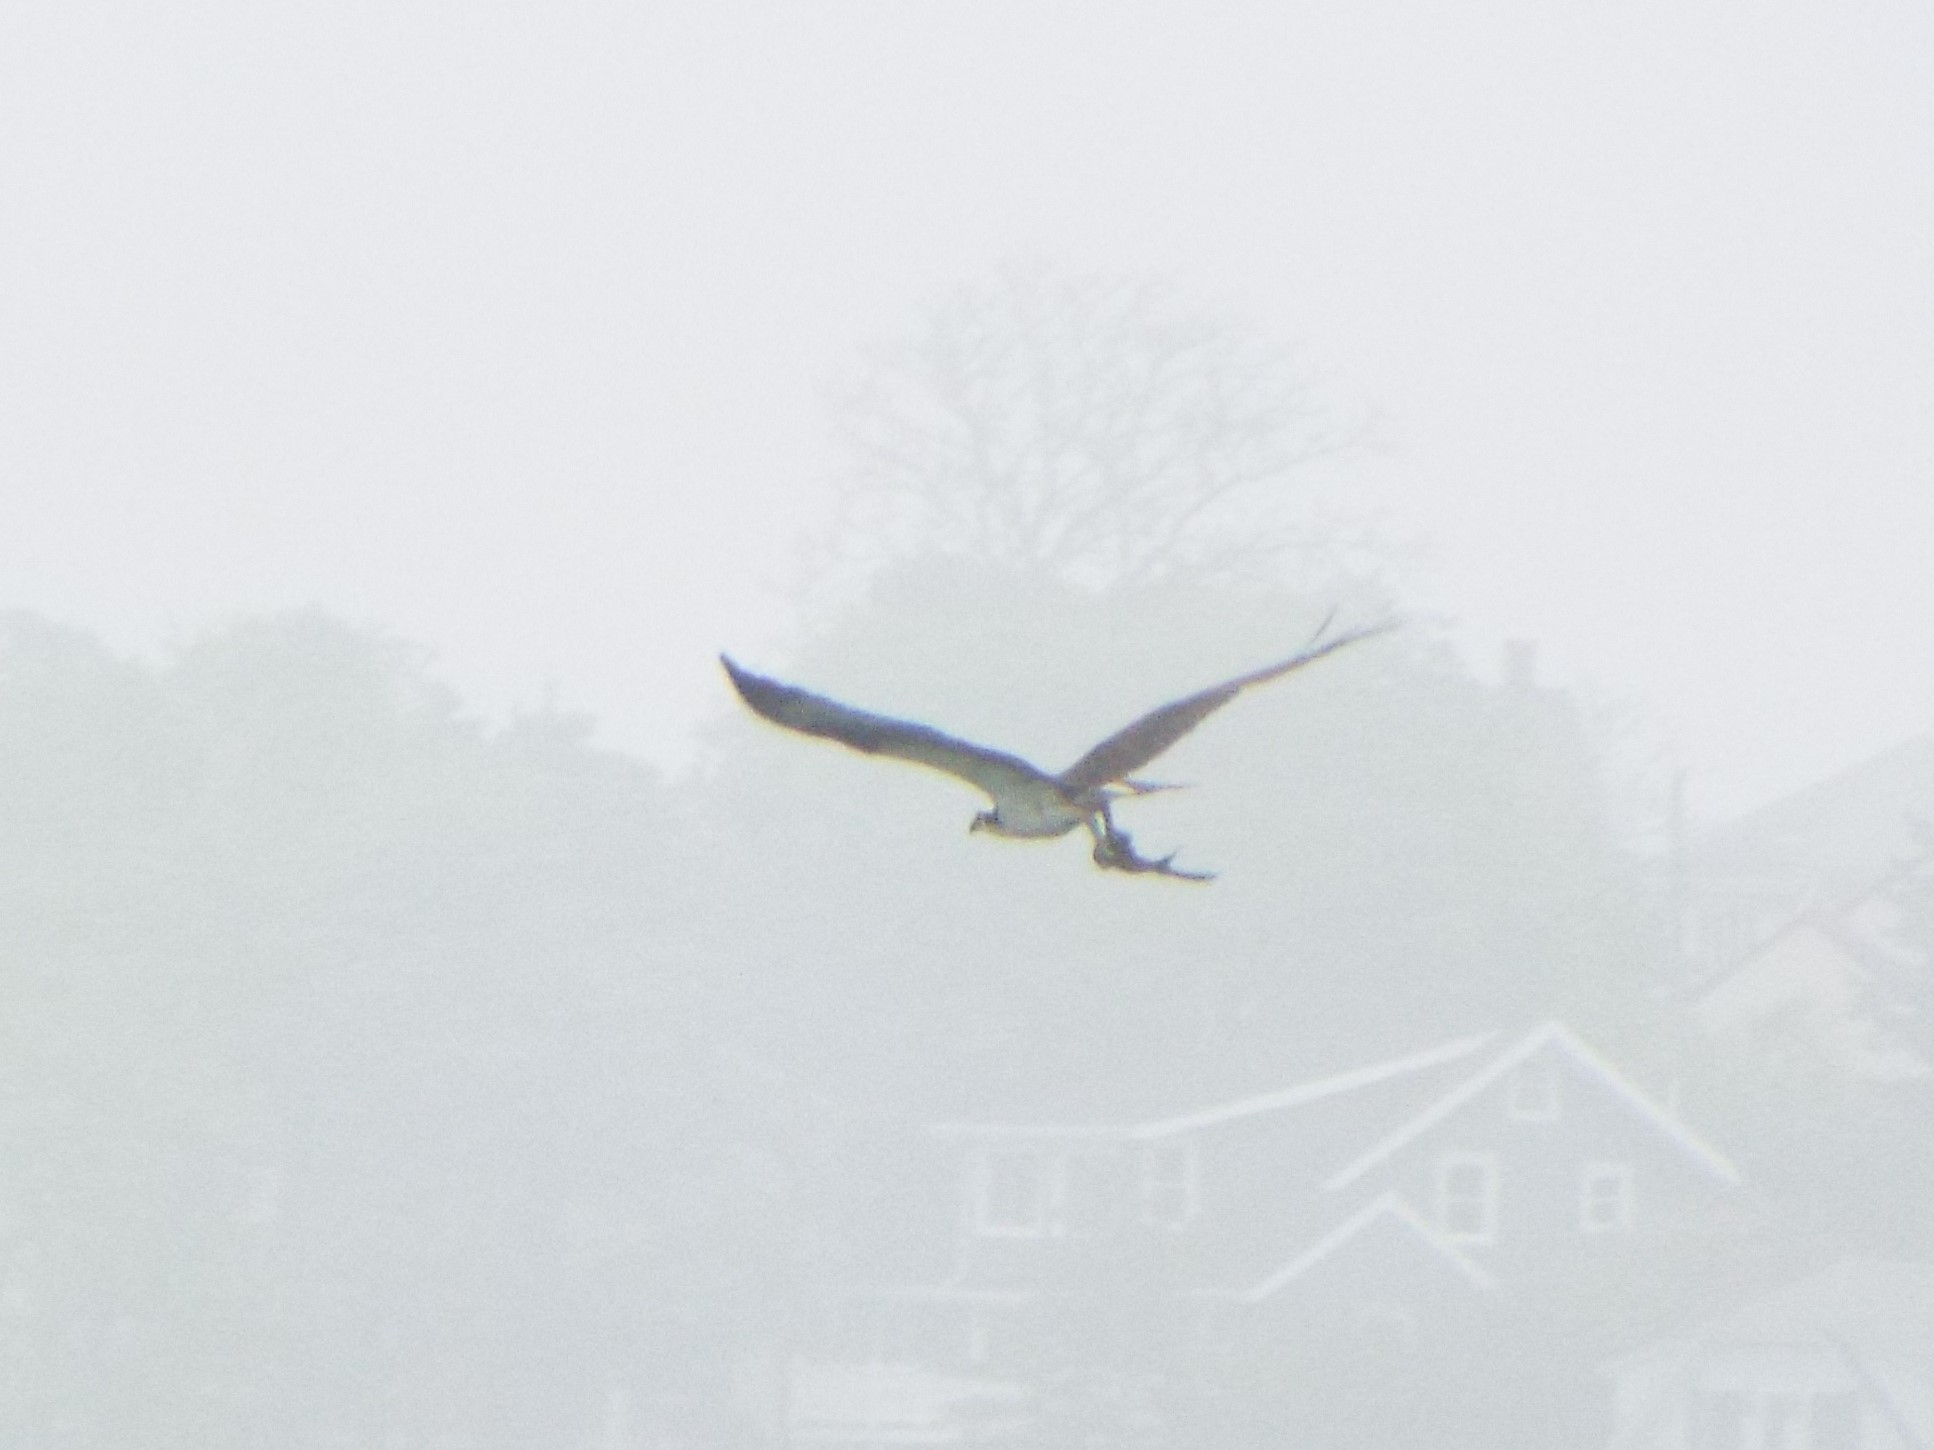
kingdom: Animalia
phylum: Chordata
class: Aves
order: Accipitriformes
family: Pandionidae
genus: Pandion
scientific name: Pandion haliaetus
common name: Osprey
